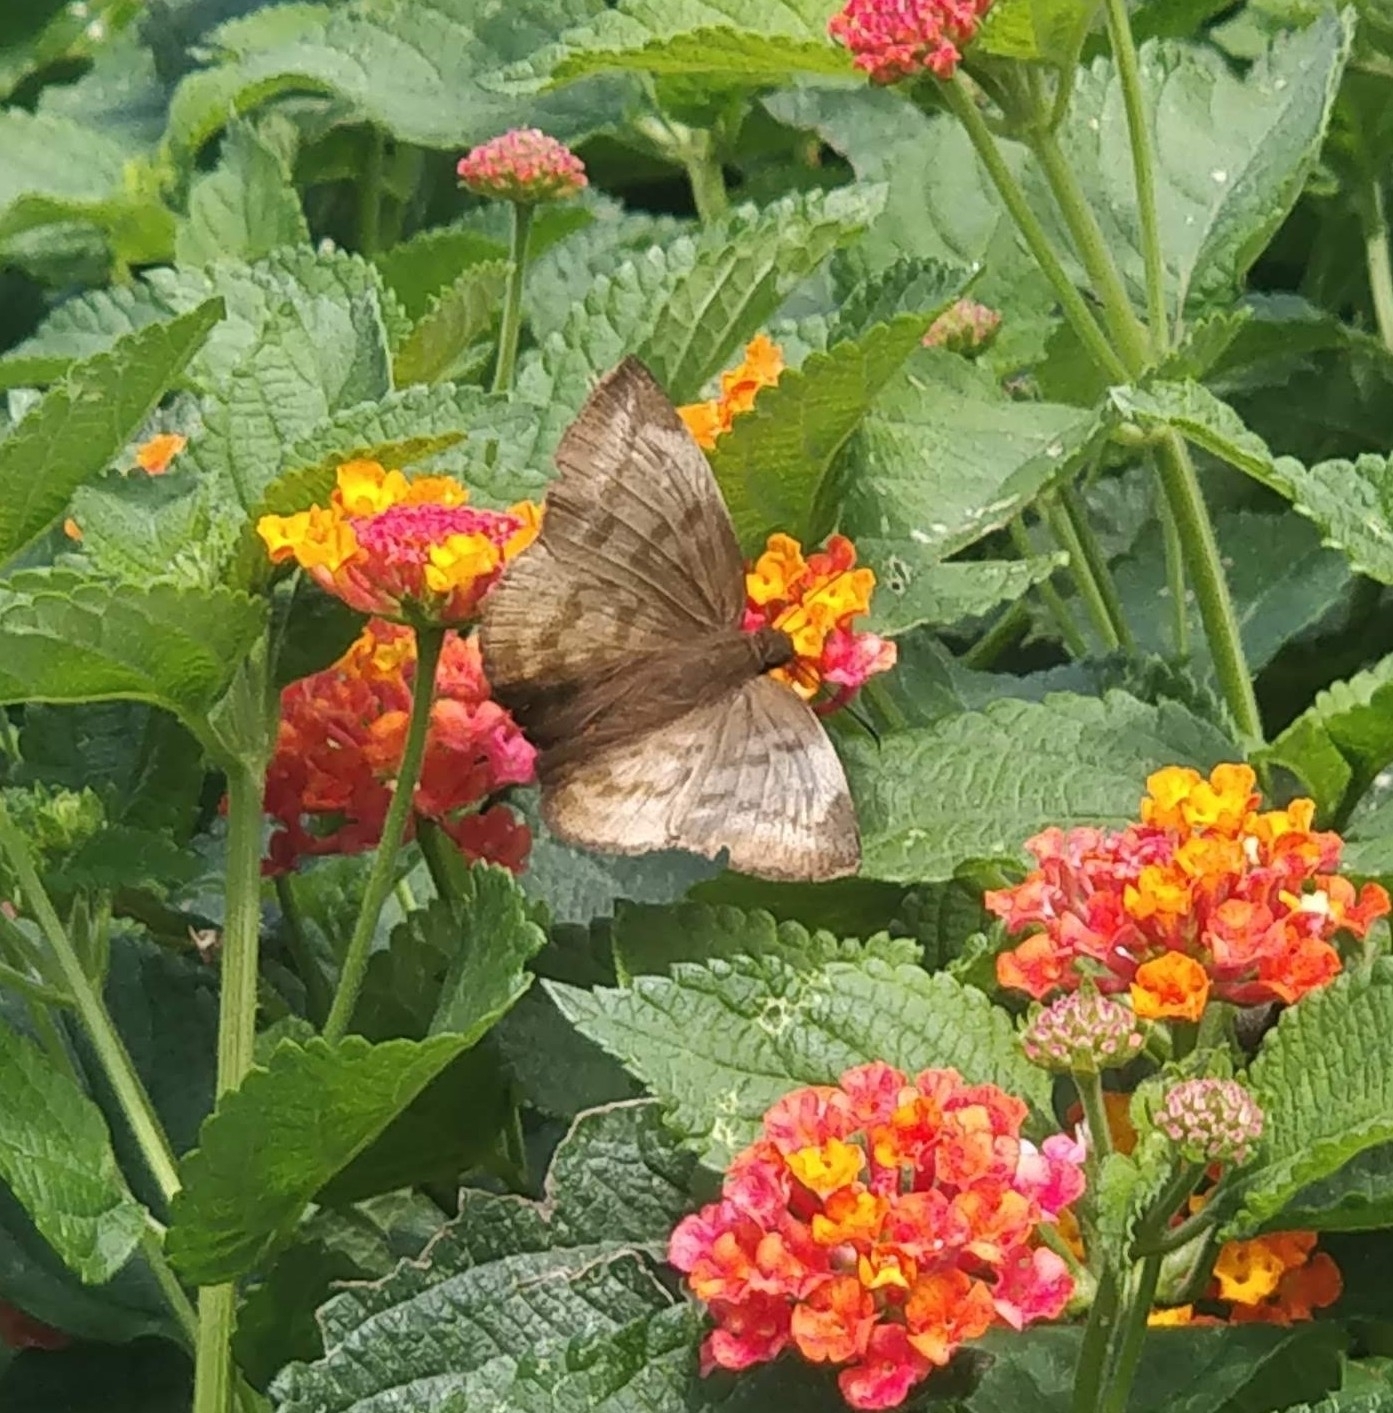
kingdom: Animalia
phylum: Arthropoda
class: Insecta
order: Lepidoptera
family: Hesperiidae
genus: Achlyodes
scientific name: Achlyodes pallida
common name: Pale sicklewing
